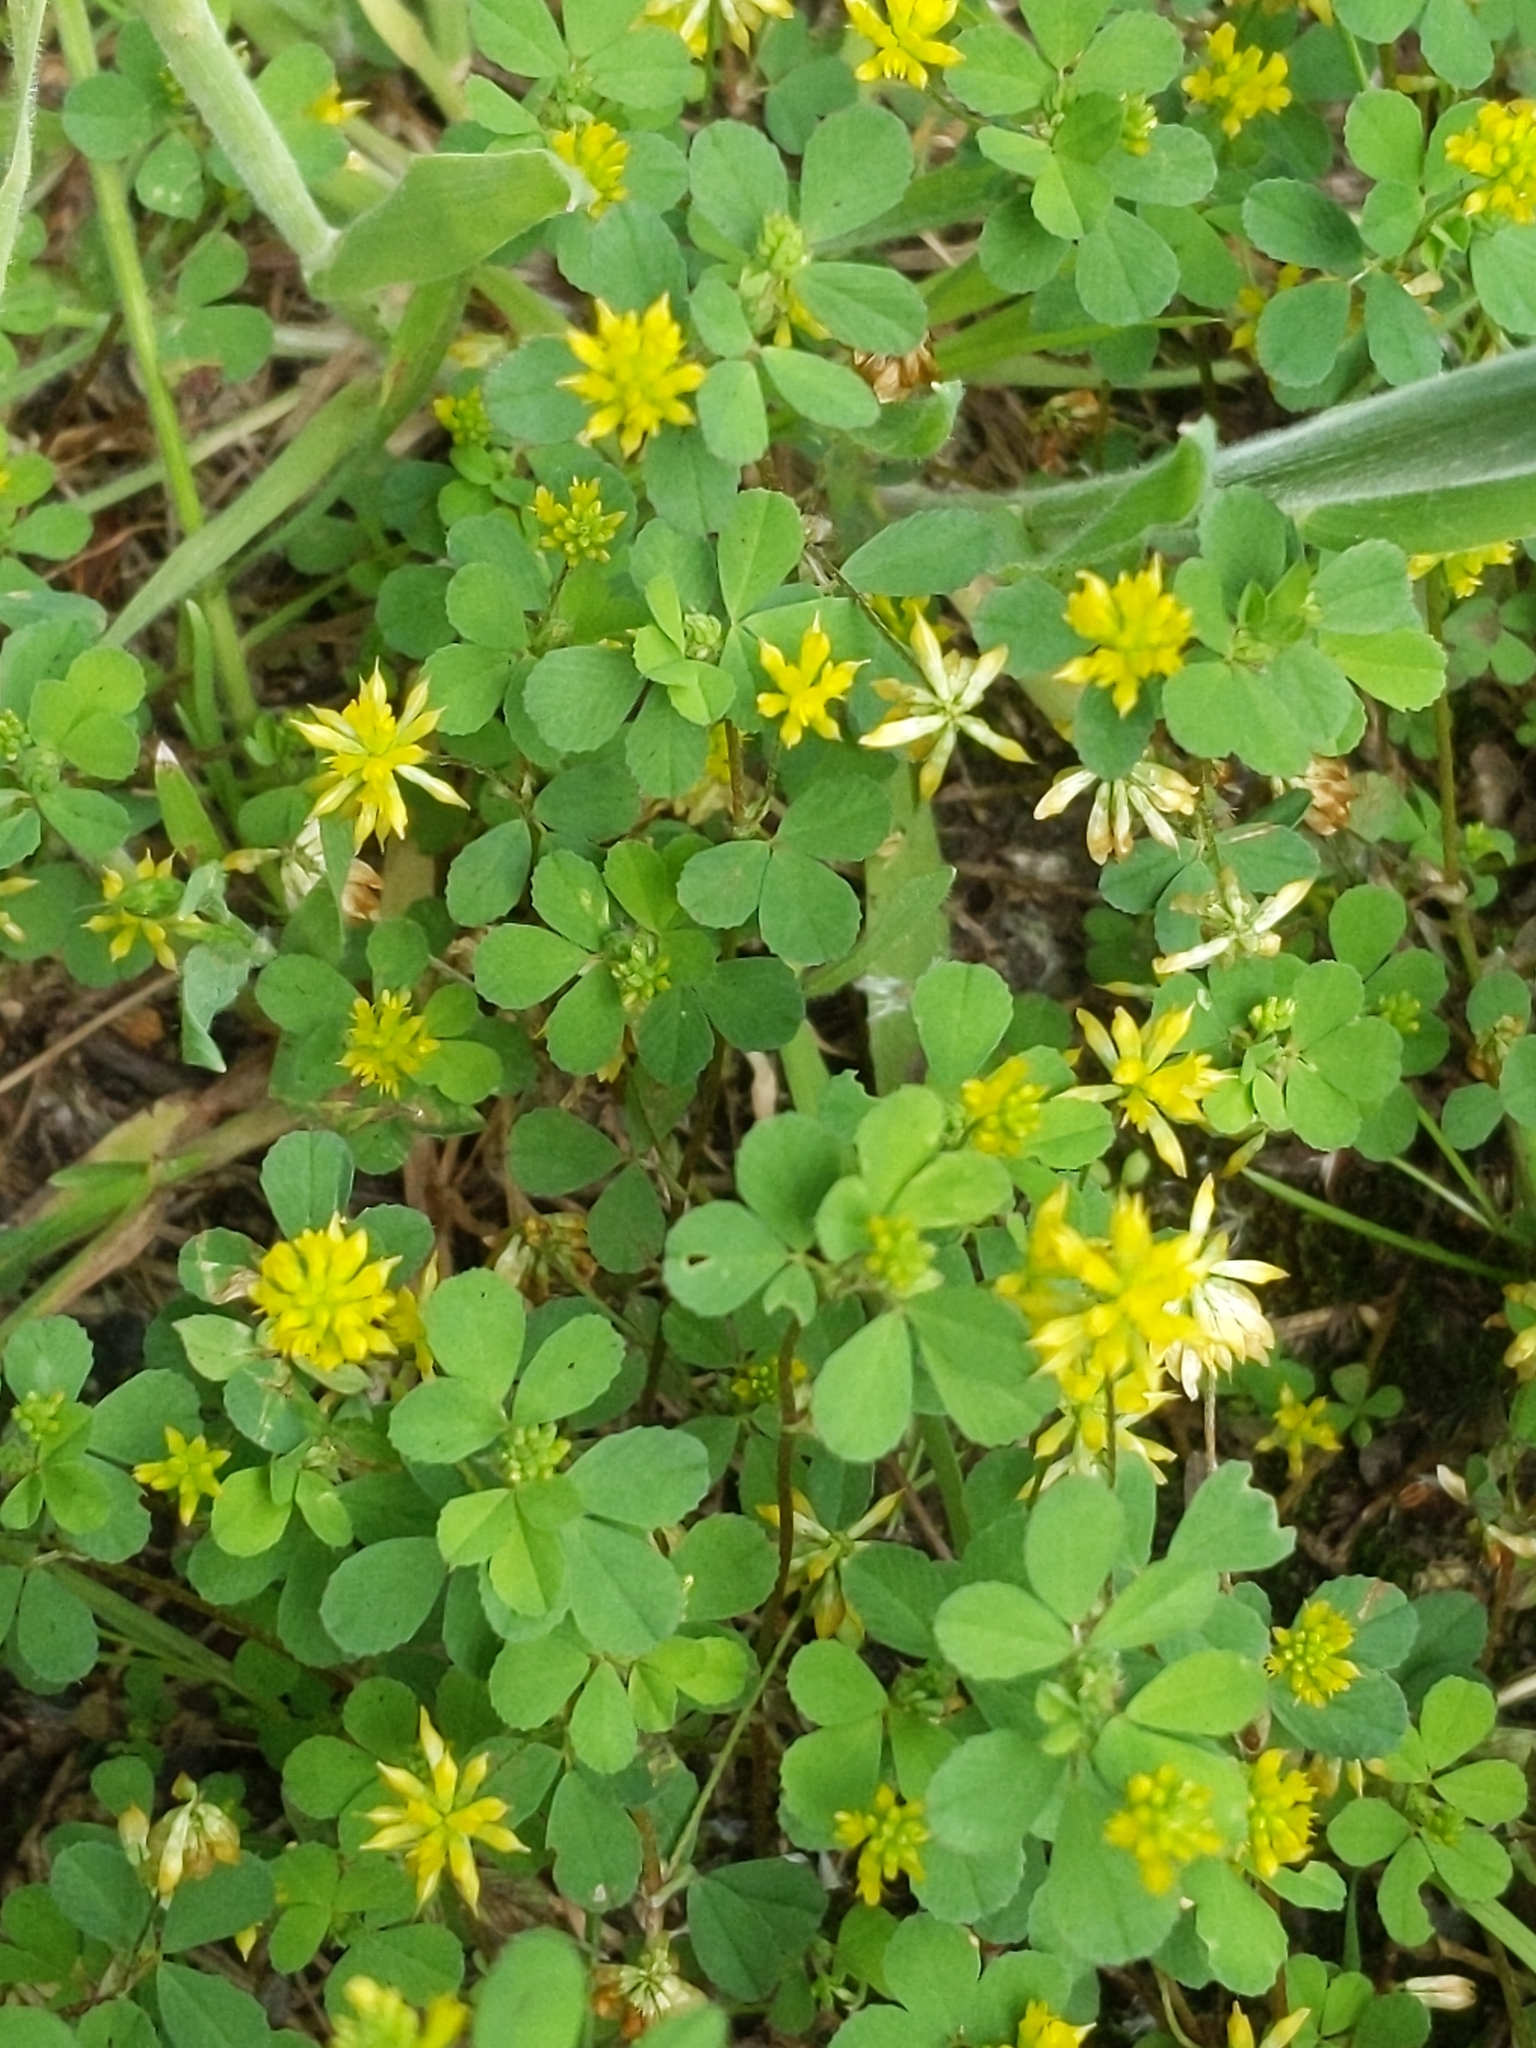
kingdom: Plantae
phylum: Tracheophyta
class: Magnoliopsida
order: Fabales
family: Fabaceae
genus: Trifolium
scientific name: Trifolium dubium
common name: Suckling clover
